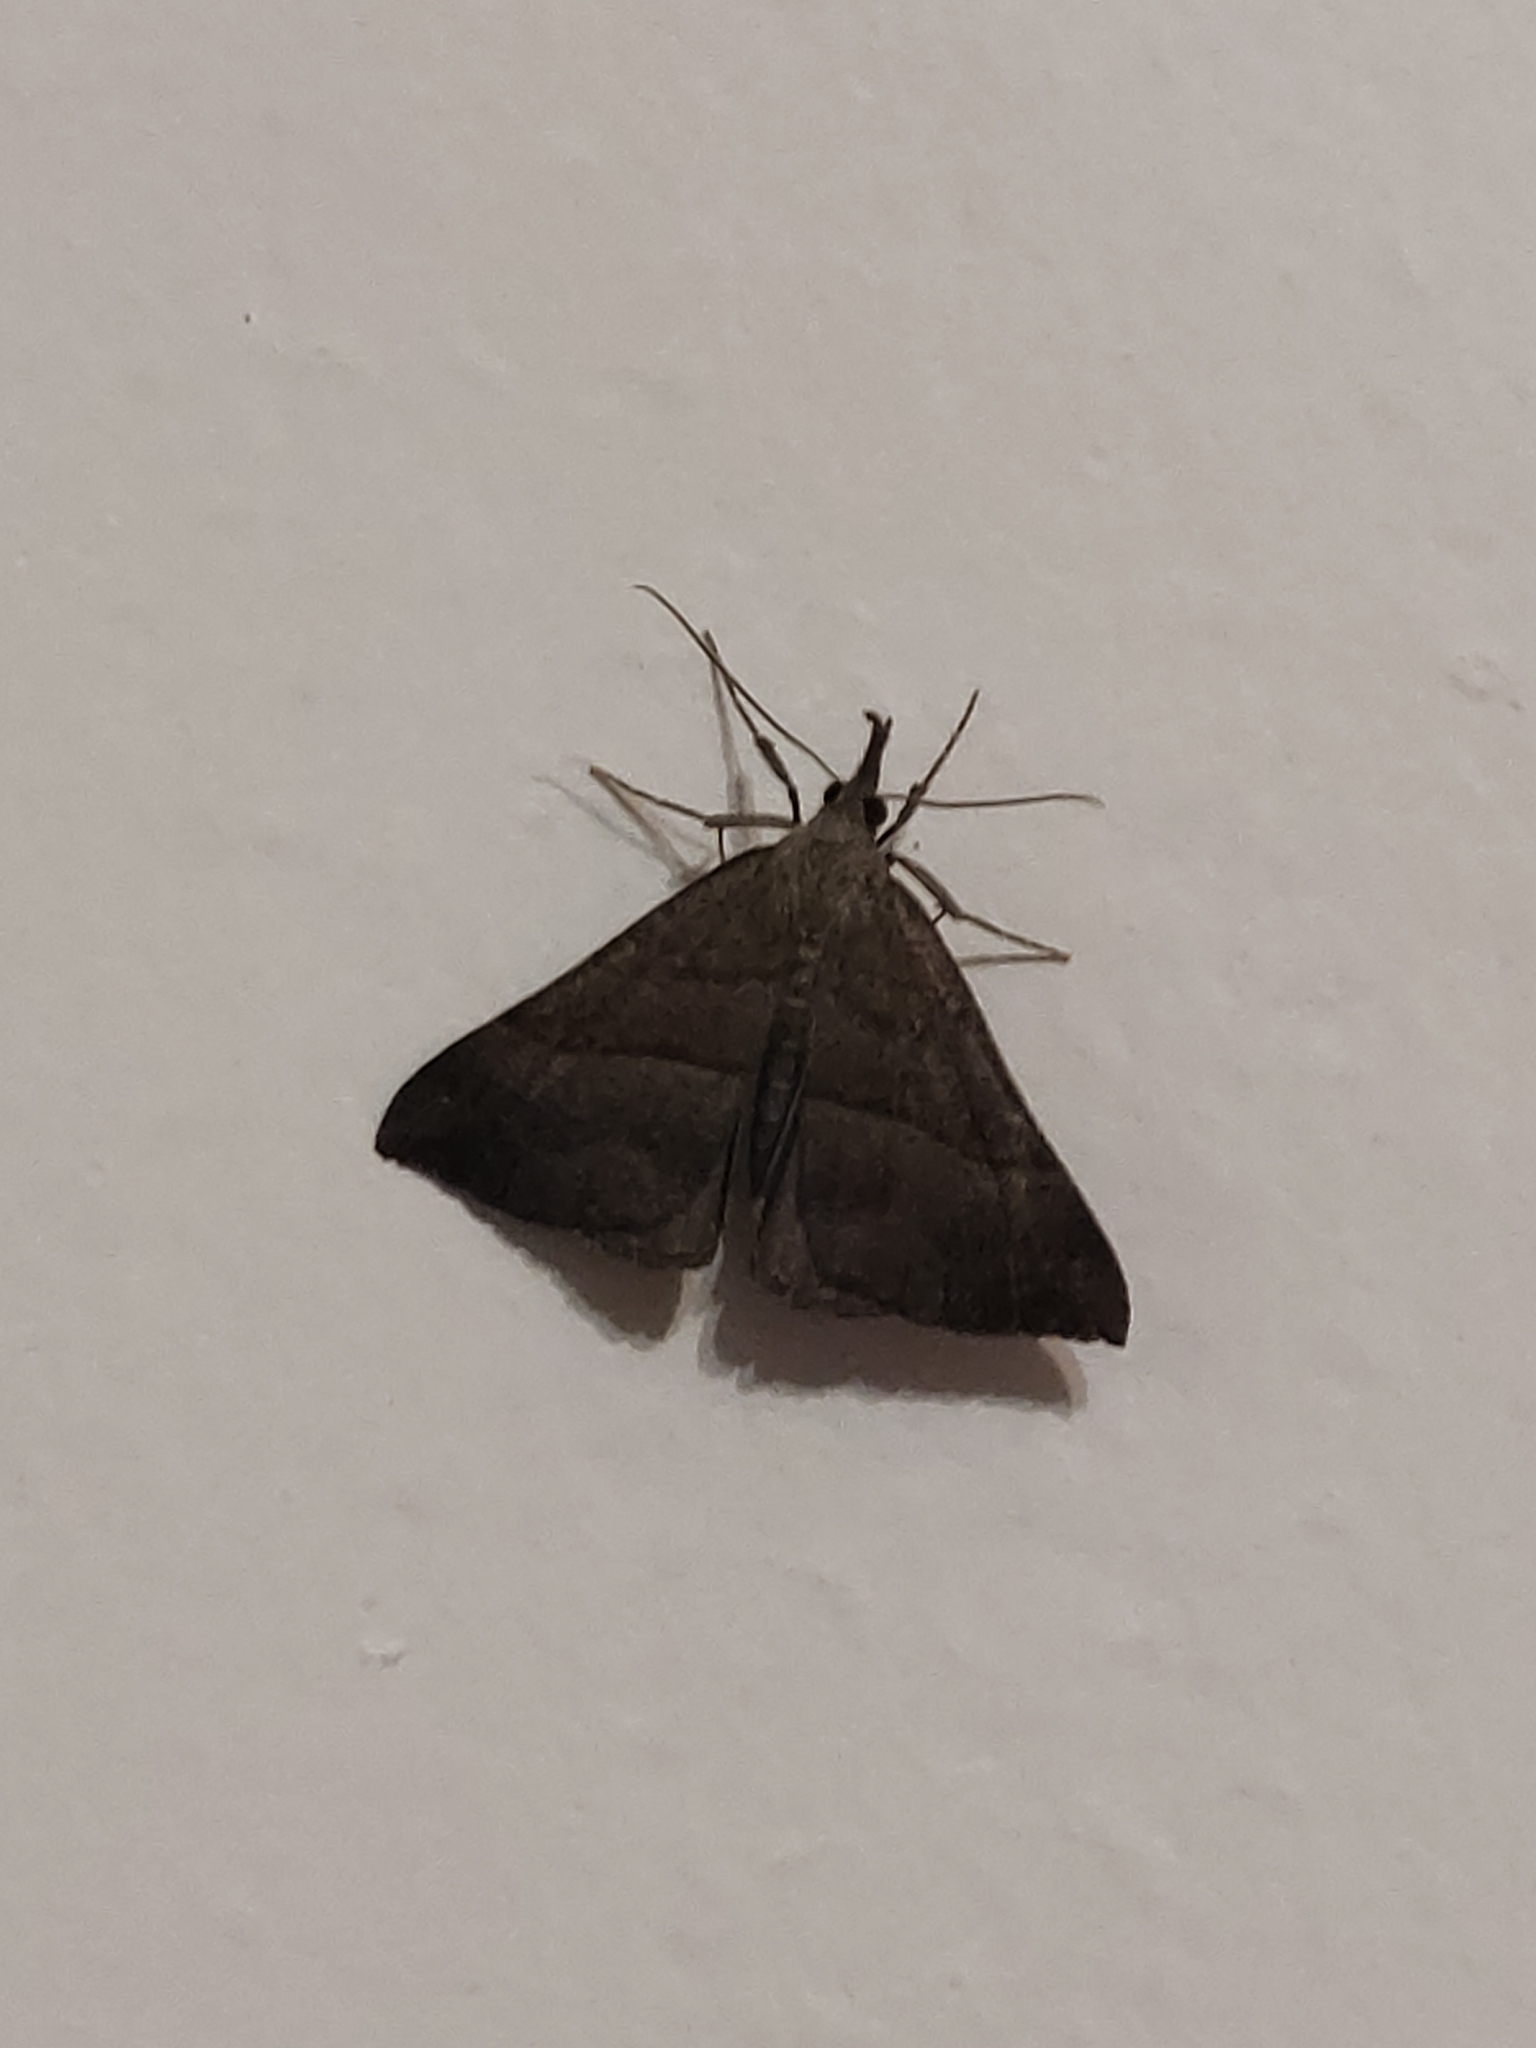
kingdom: Animalia
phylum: Arthropoda
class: Insecta
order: Lepidoptera
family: Erebidae
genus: Hypena
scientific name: Hypena proboscidalis
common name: Snout
